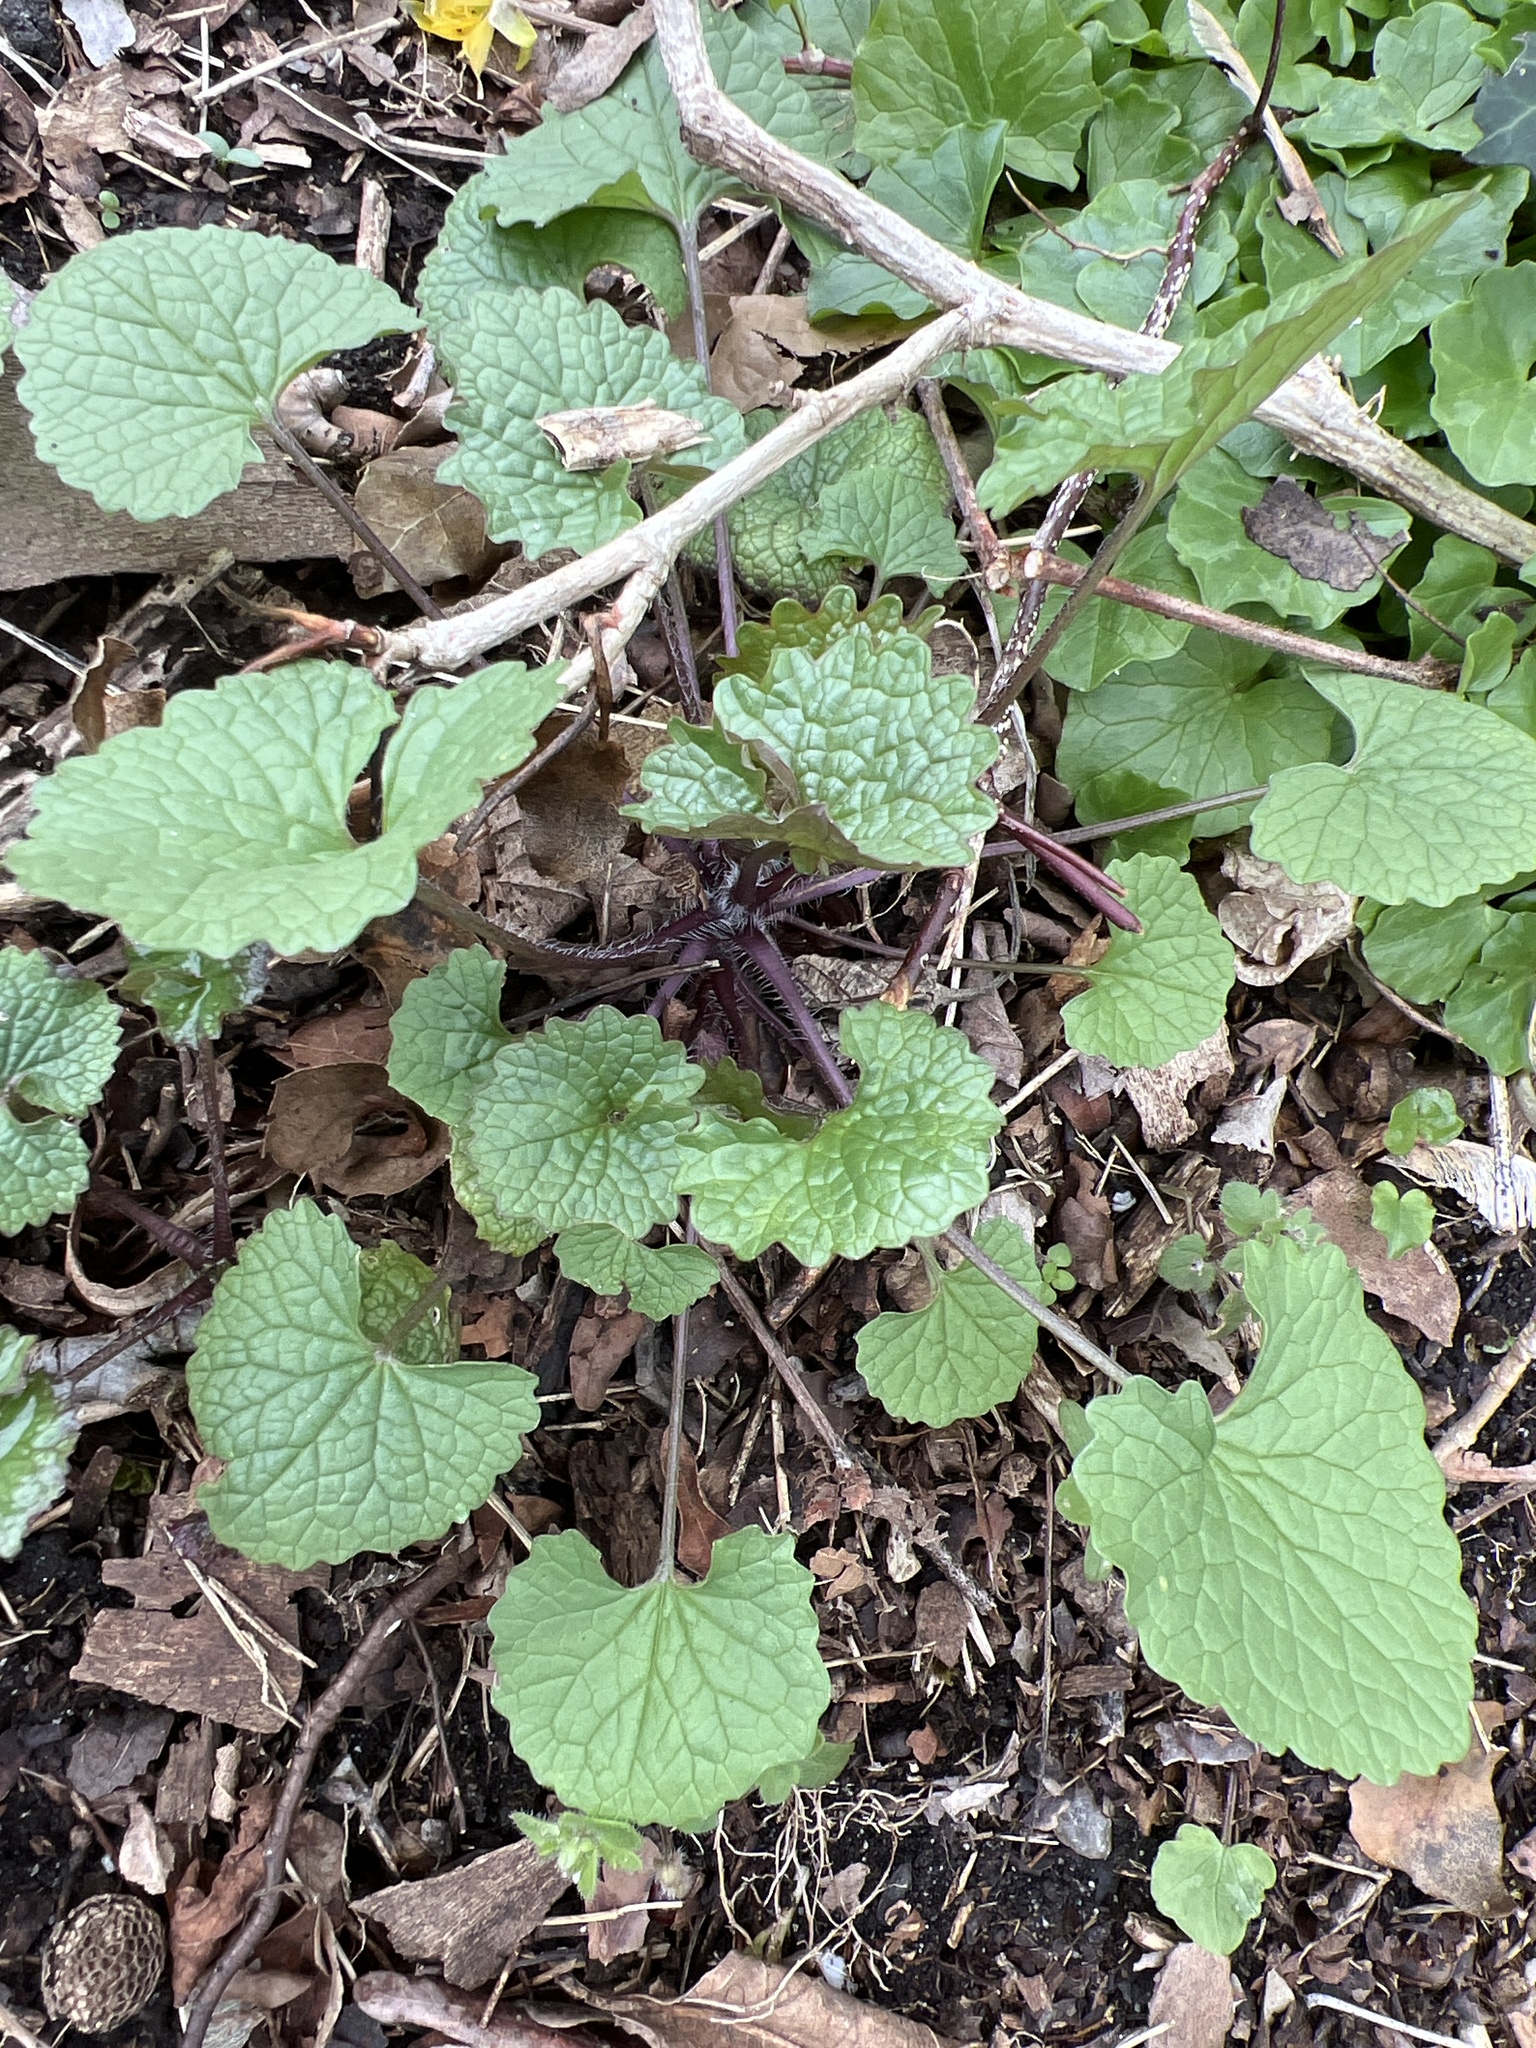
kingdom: Plantae
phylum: Tracheophyta
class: Magnoliopsida
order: Brassicales
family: Brassicaceae
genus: Alliaria
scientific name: Alliaria petiolata
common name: Garlic mustard
